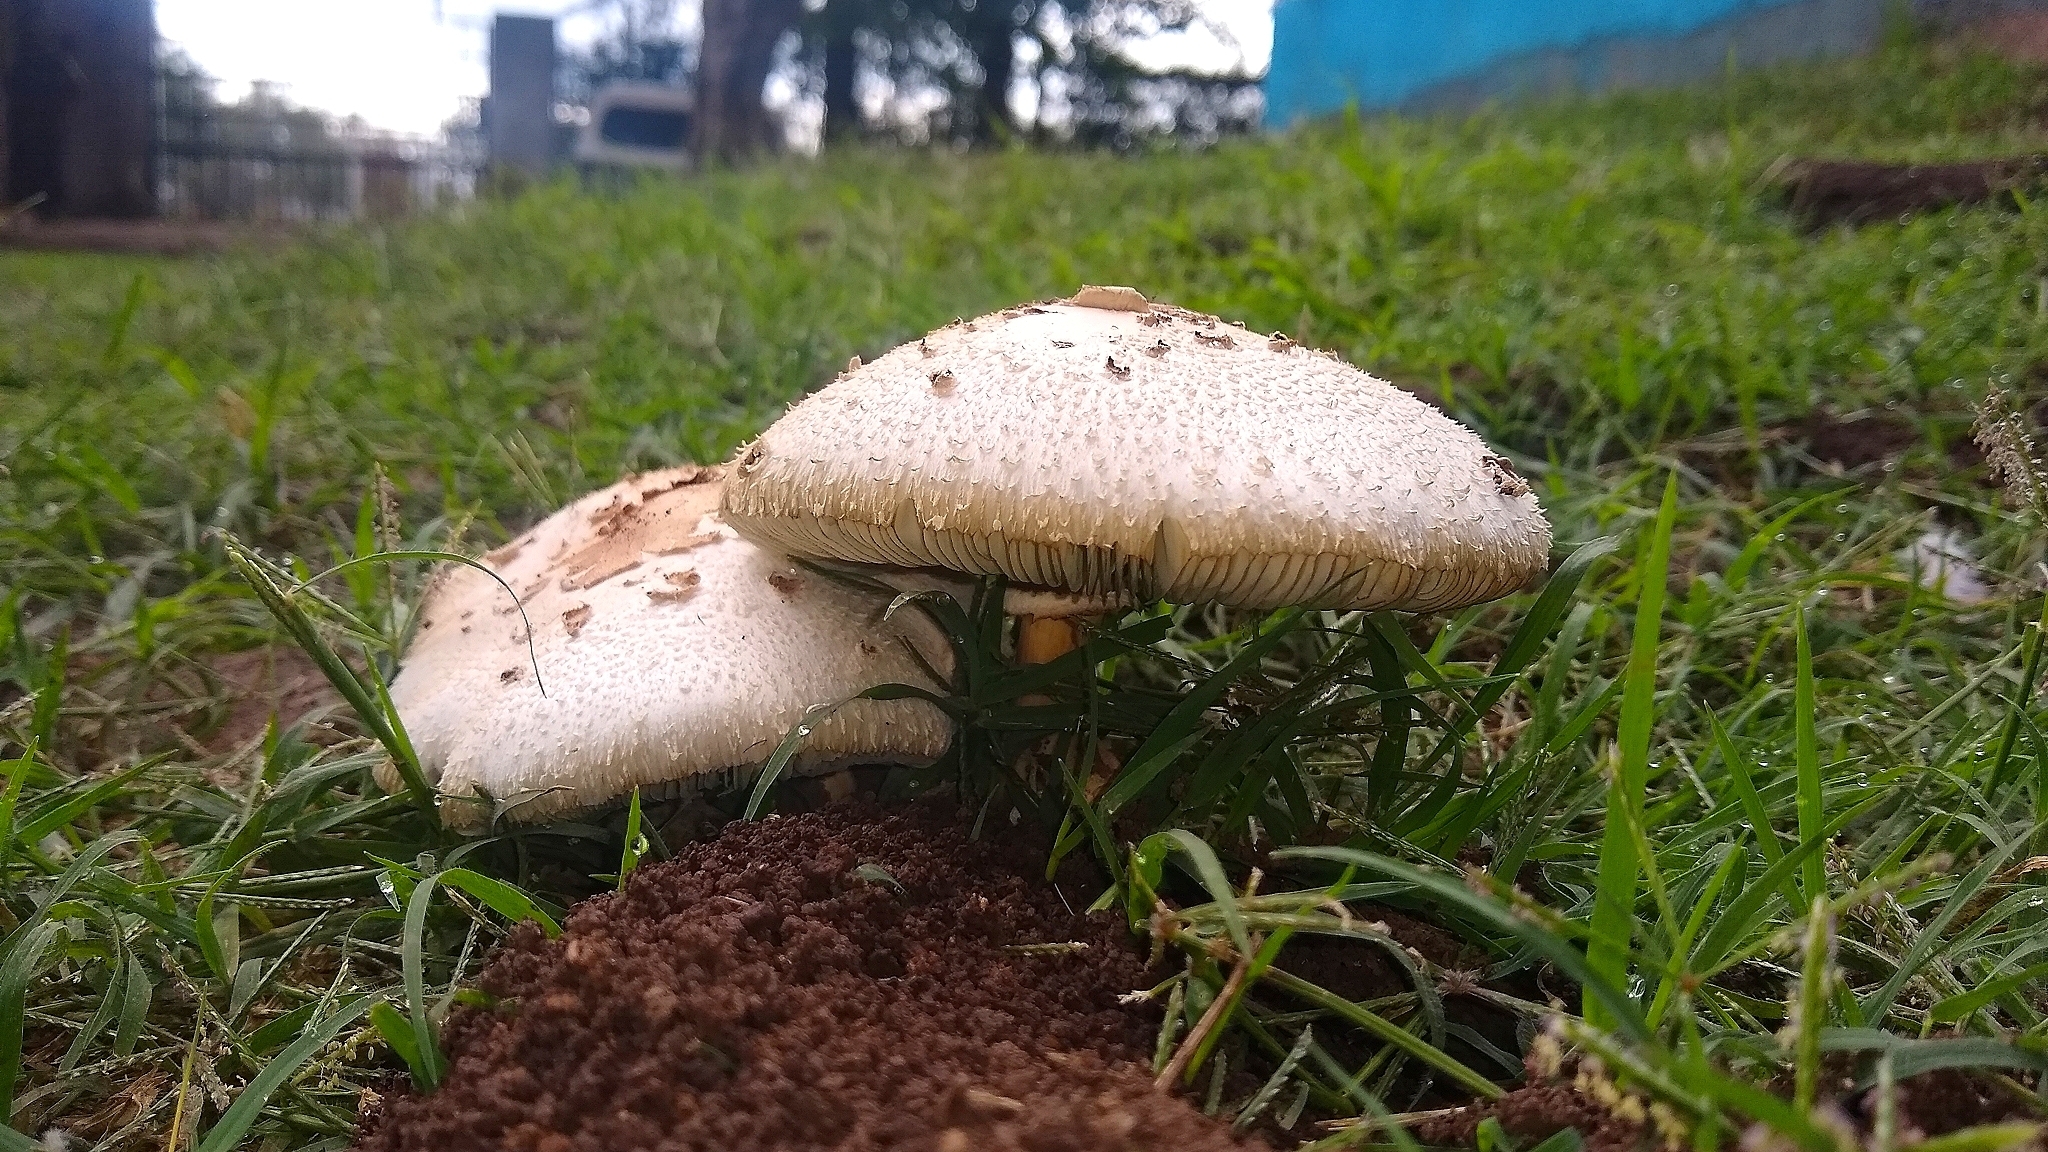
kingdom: Fungi
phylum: Basidiomycota
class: Agaricomycetes
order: Agaricales
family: Agaricaceae
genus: Chlorophyllum
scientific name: Chlorophyllum molybdites
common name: False parasol
